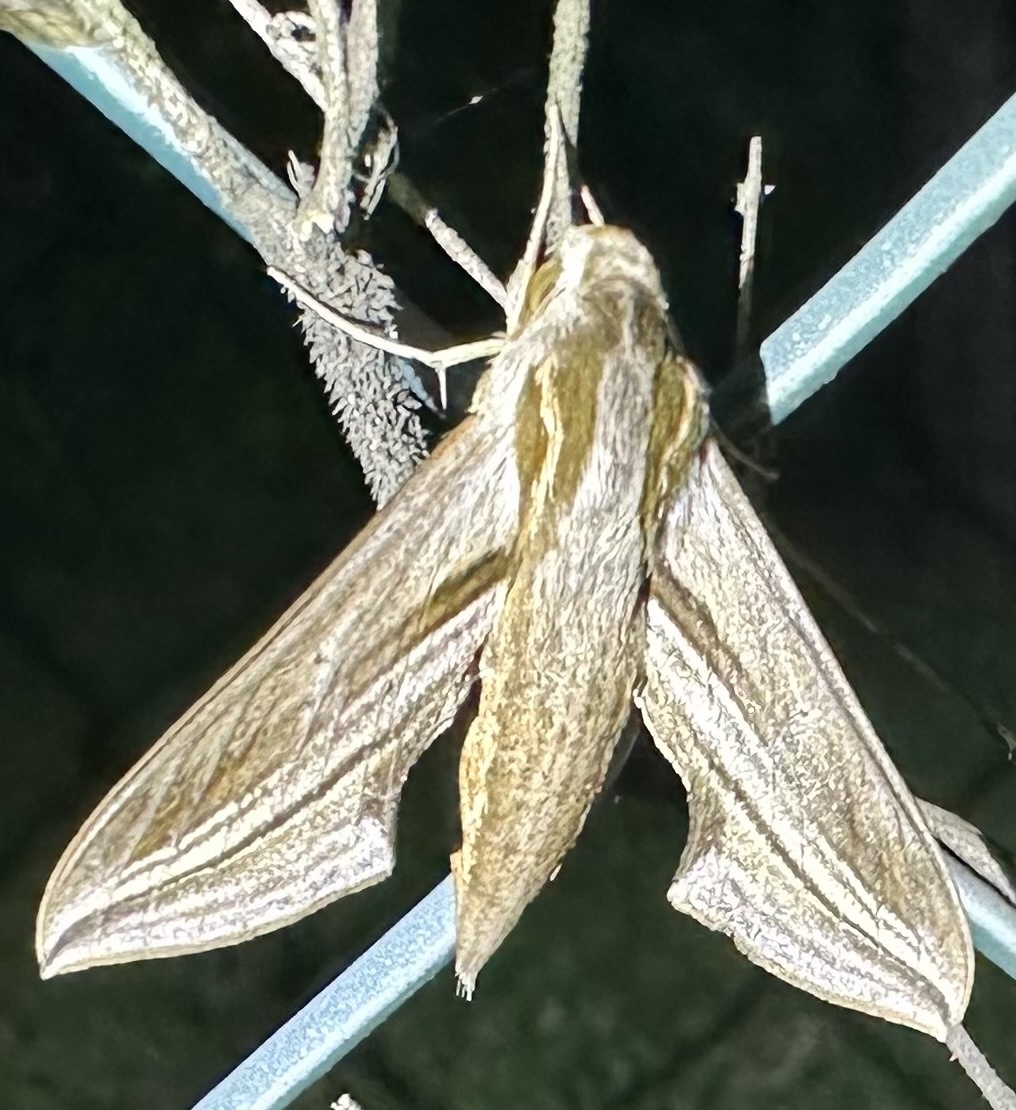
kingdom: Animalia
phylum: Arthropoda
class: Insecta
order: Lepidoptera
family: Sphingidae
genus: Theretra
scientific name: Theretra monteironis
